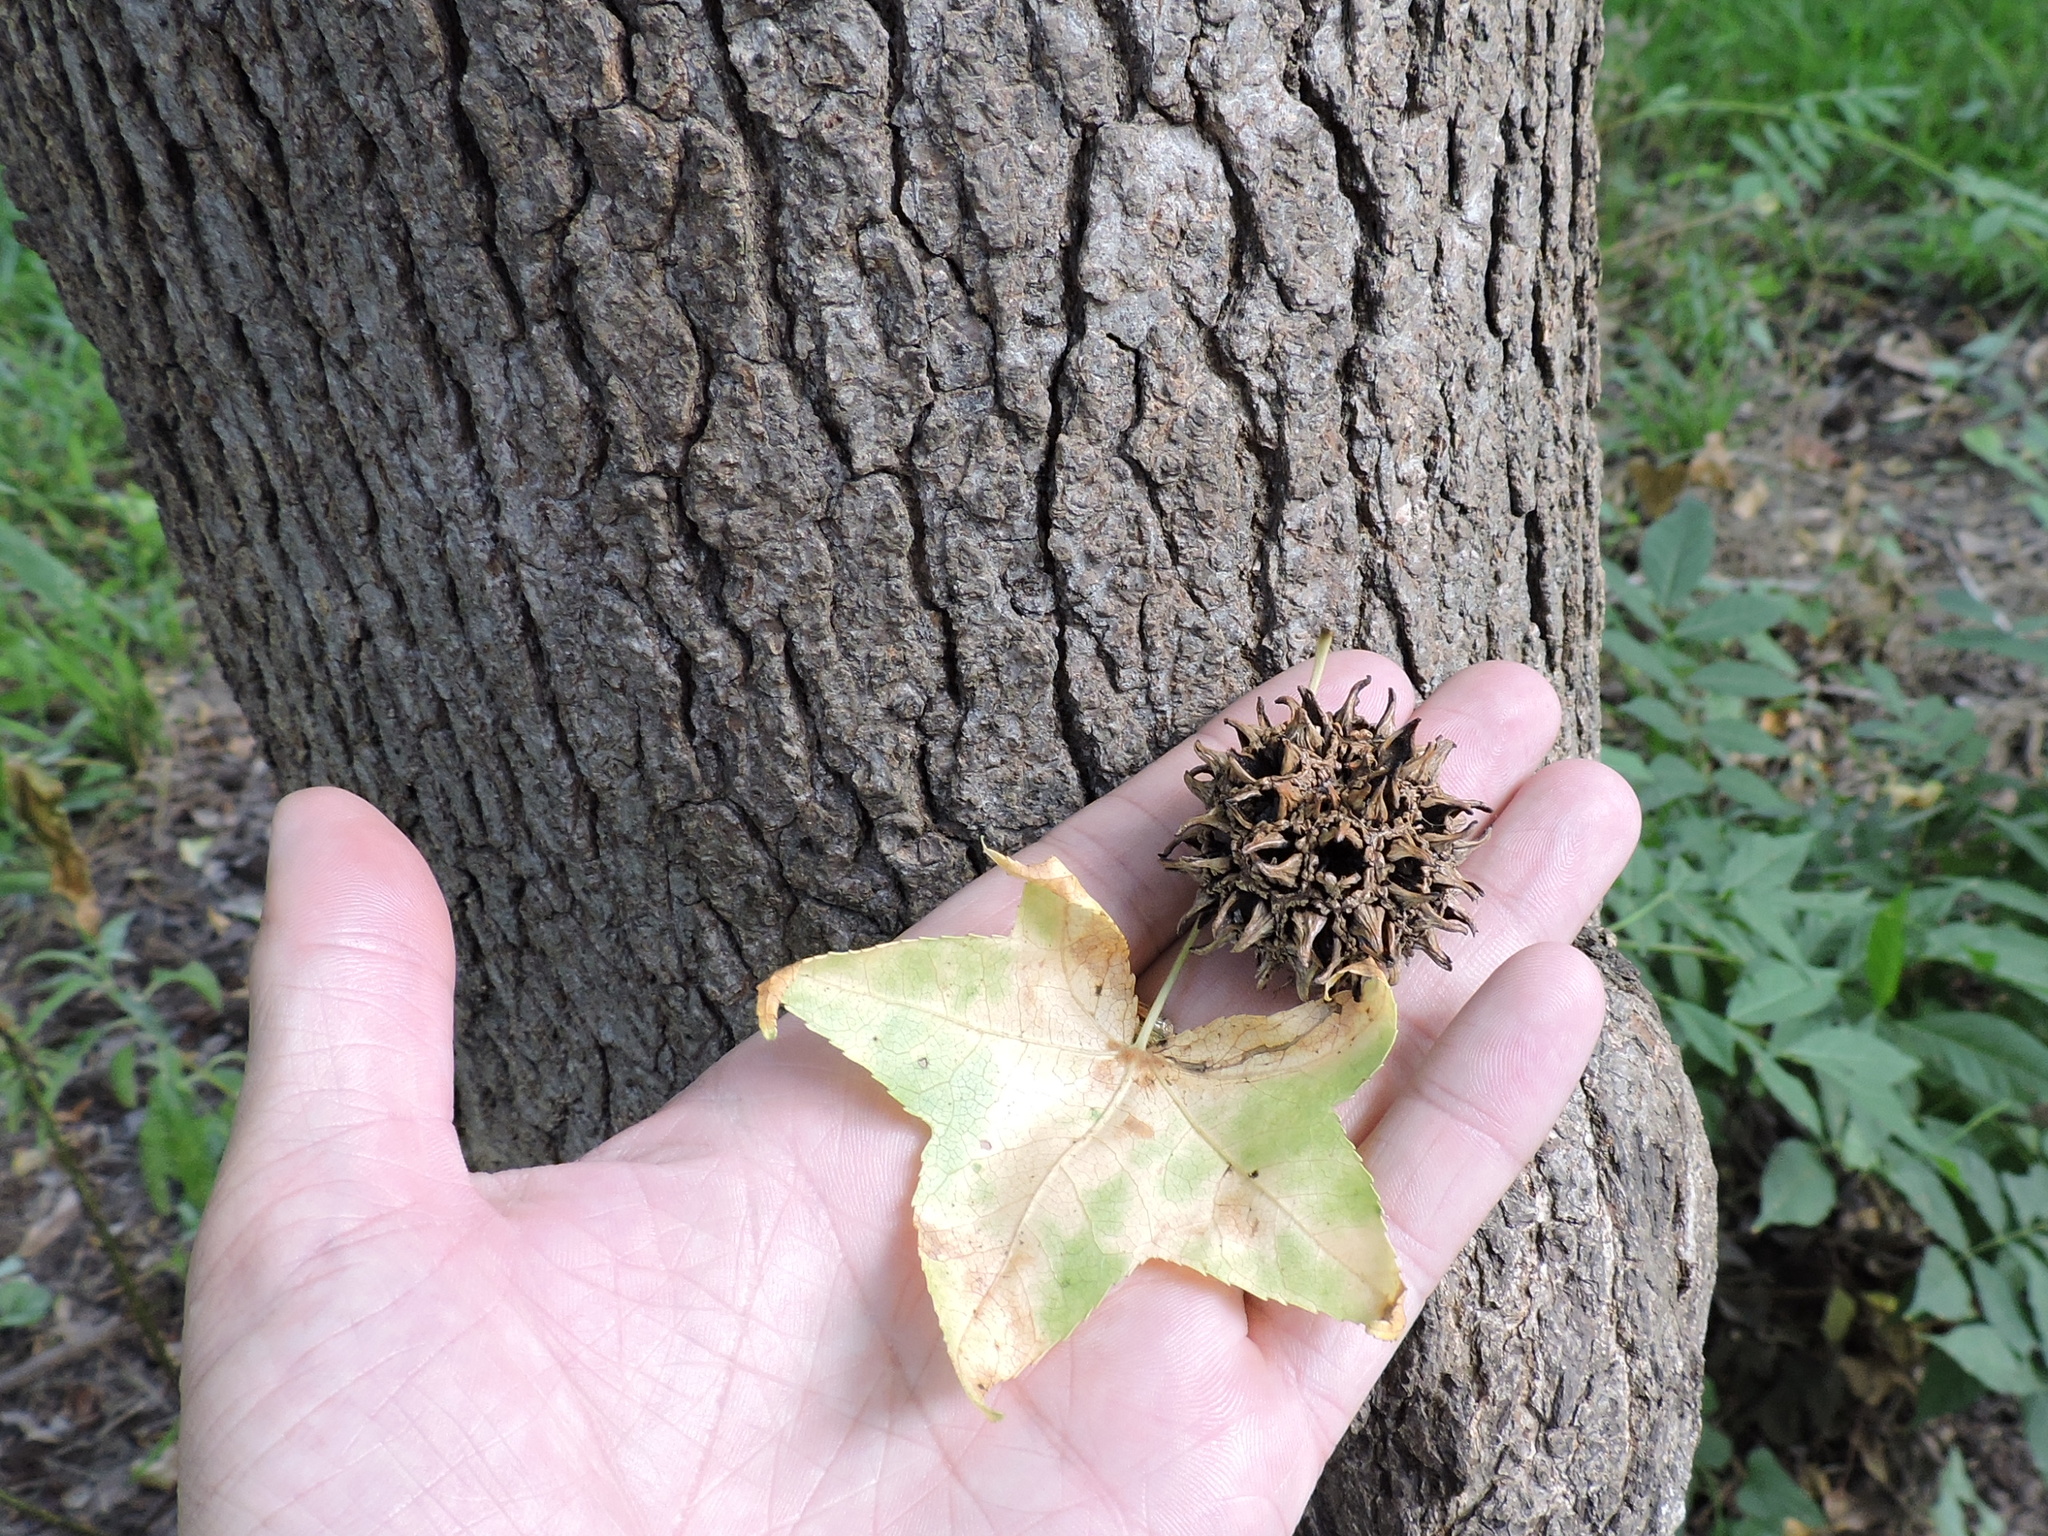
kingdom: Plantae
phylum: Tracheophyta
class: Magnoliopsida
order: Saxifragales
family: Altingiaceae
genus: Liquidambar
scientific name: Liquidambar styraciflua
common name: Sweet gum
